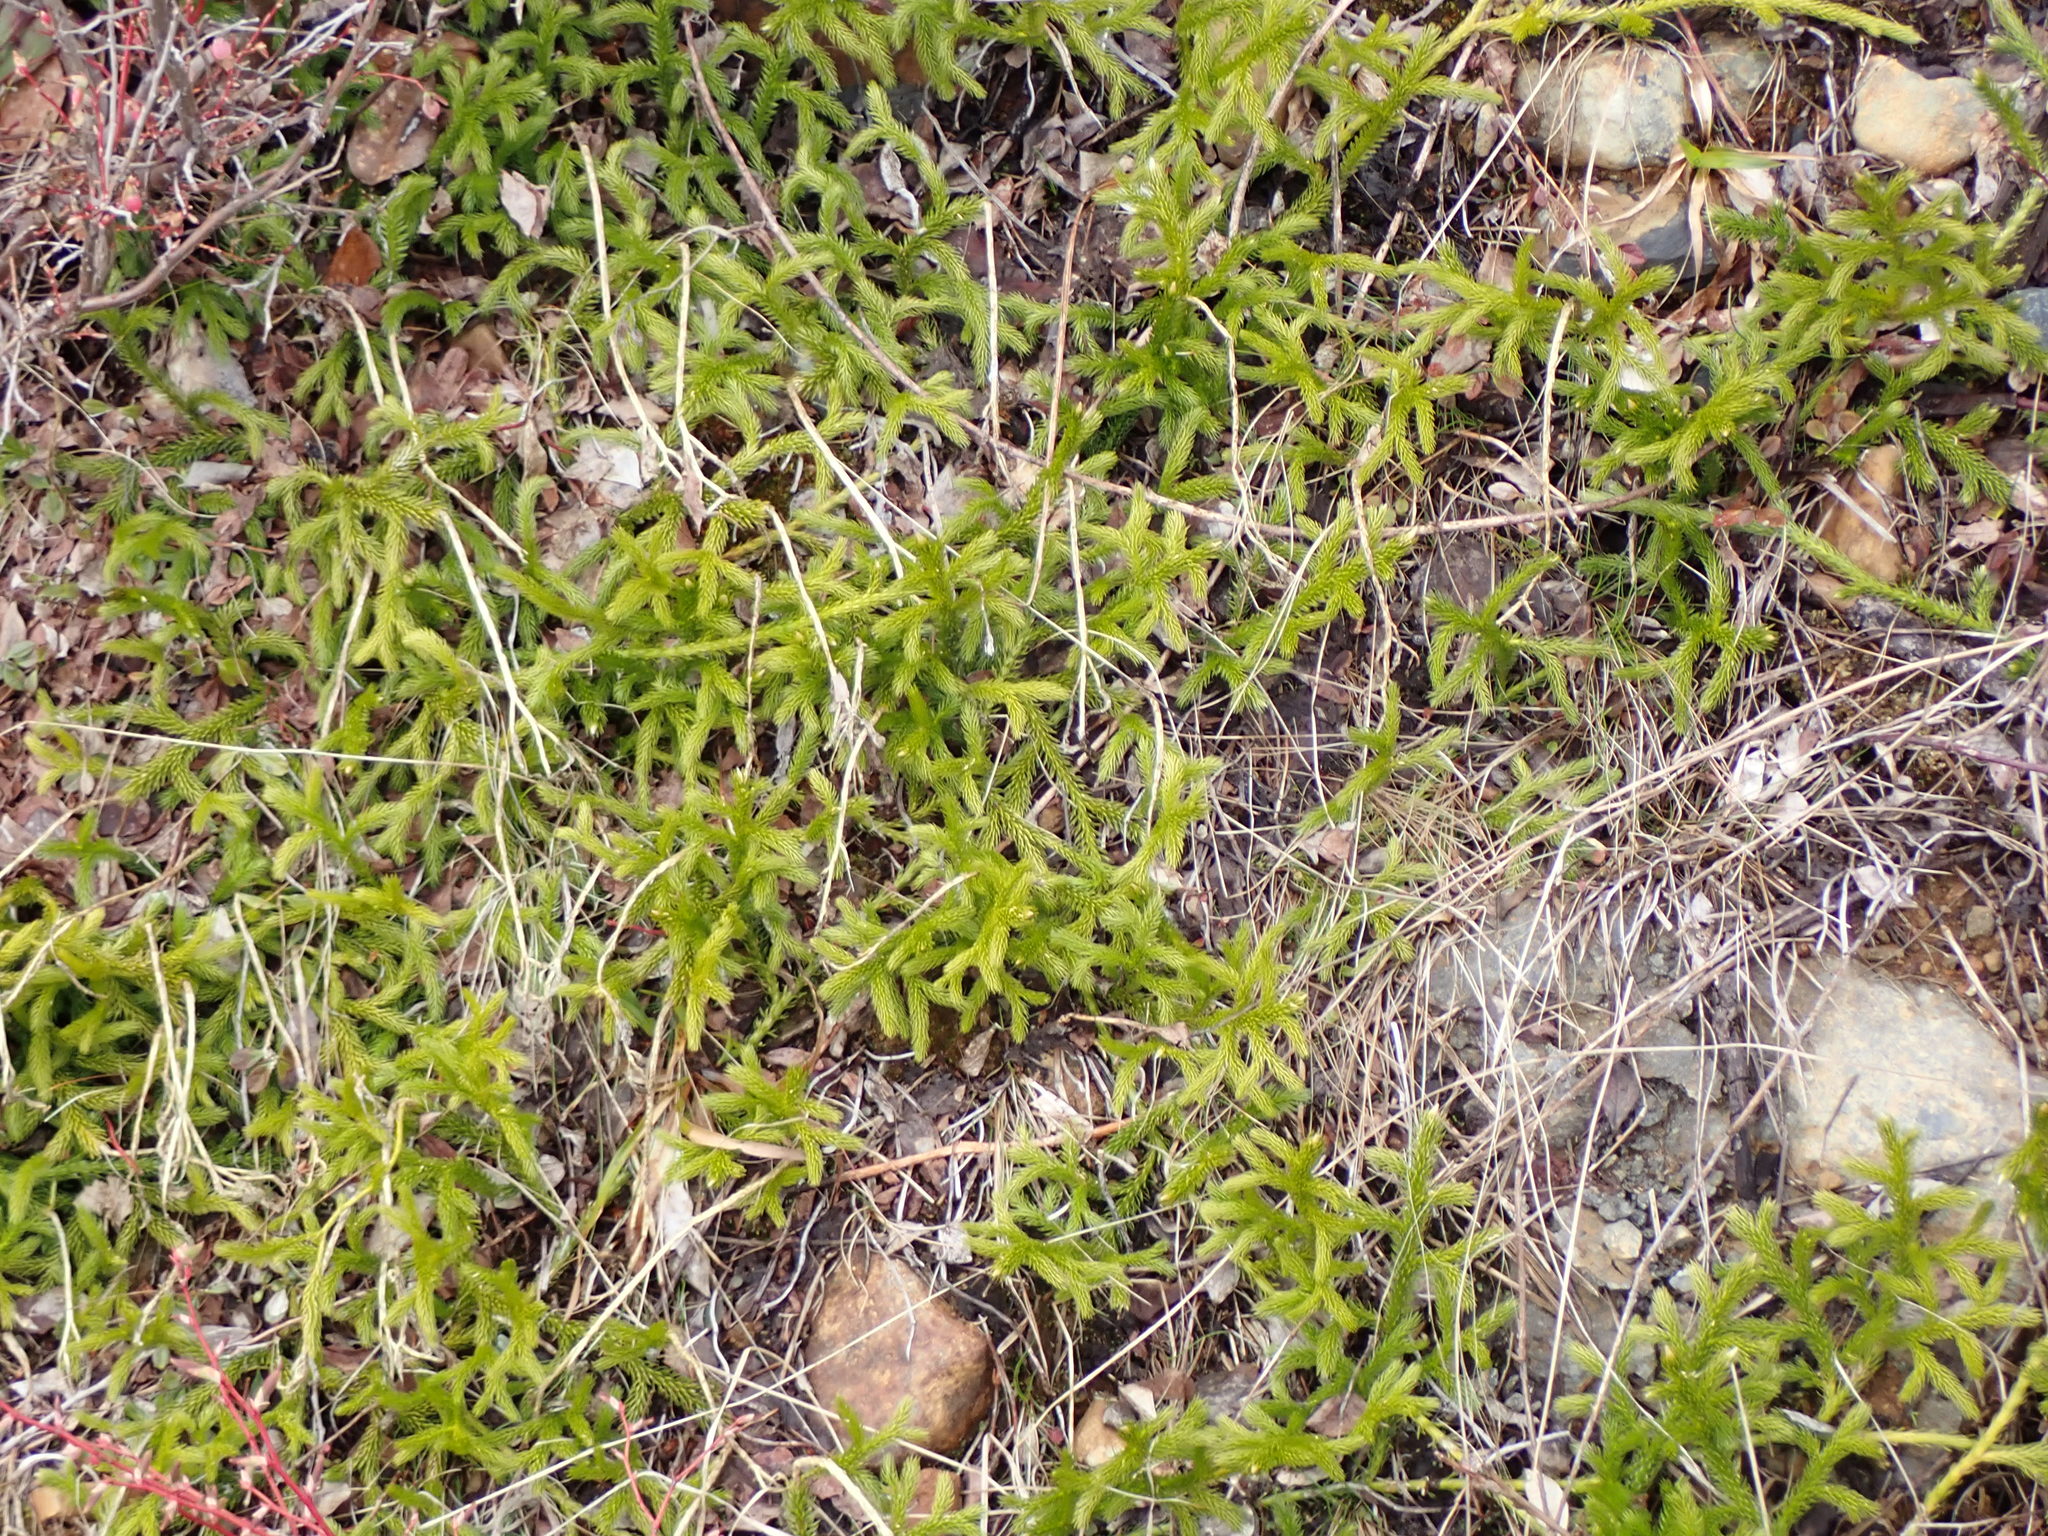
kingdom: Plantae
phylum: Tracheophyta
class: Lycopodiopsida
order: Lycopodiales
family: Lycopodiaceae
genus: Lycopodium
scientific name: Lycopodium clavatum
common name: Stag's-horn clubmoss
